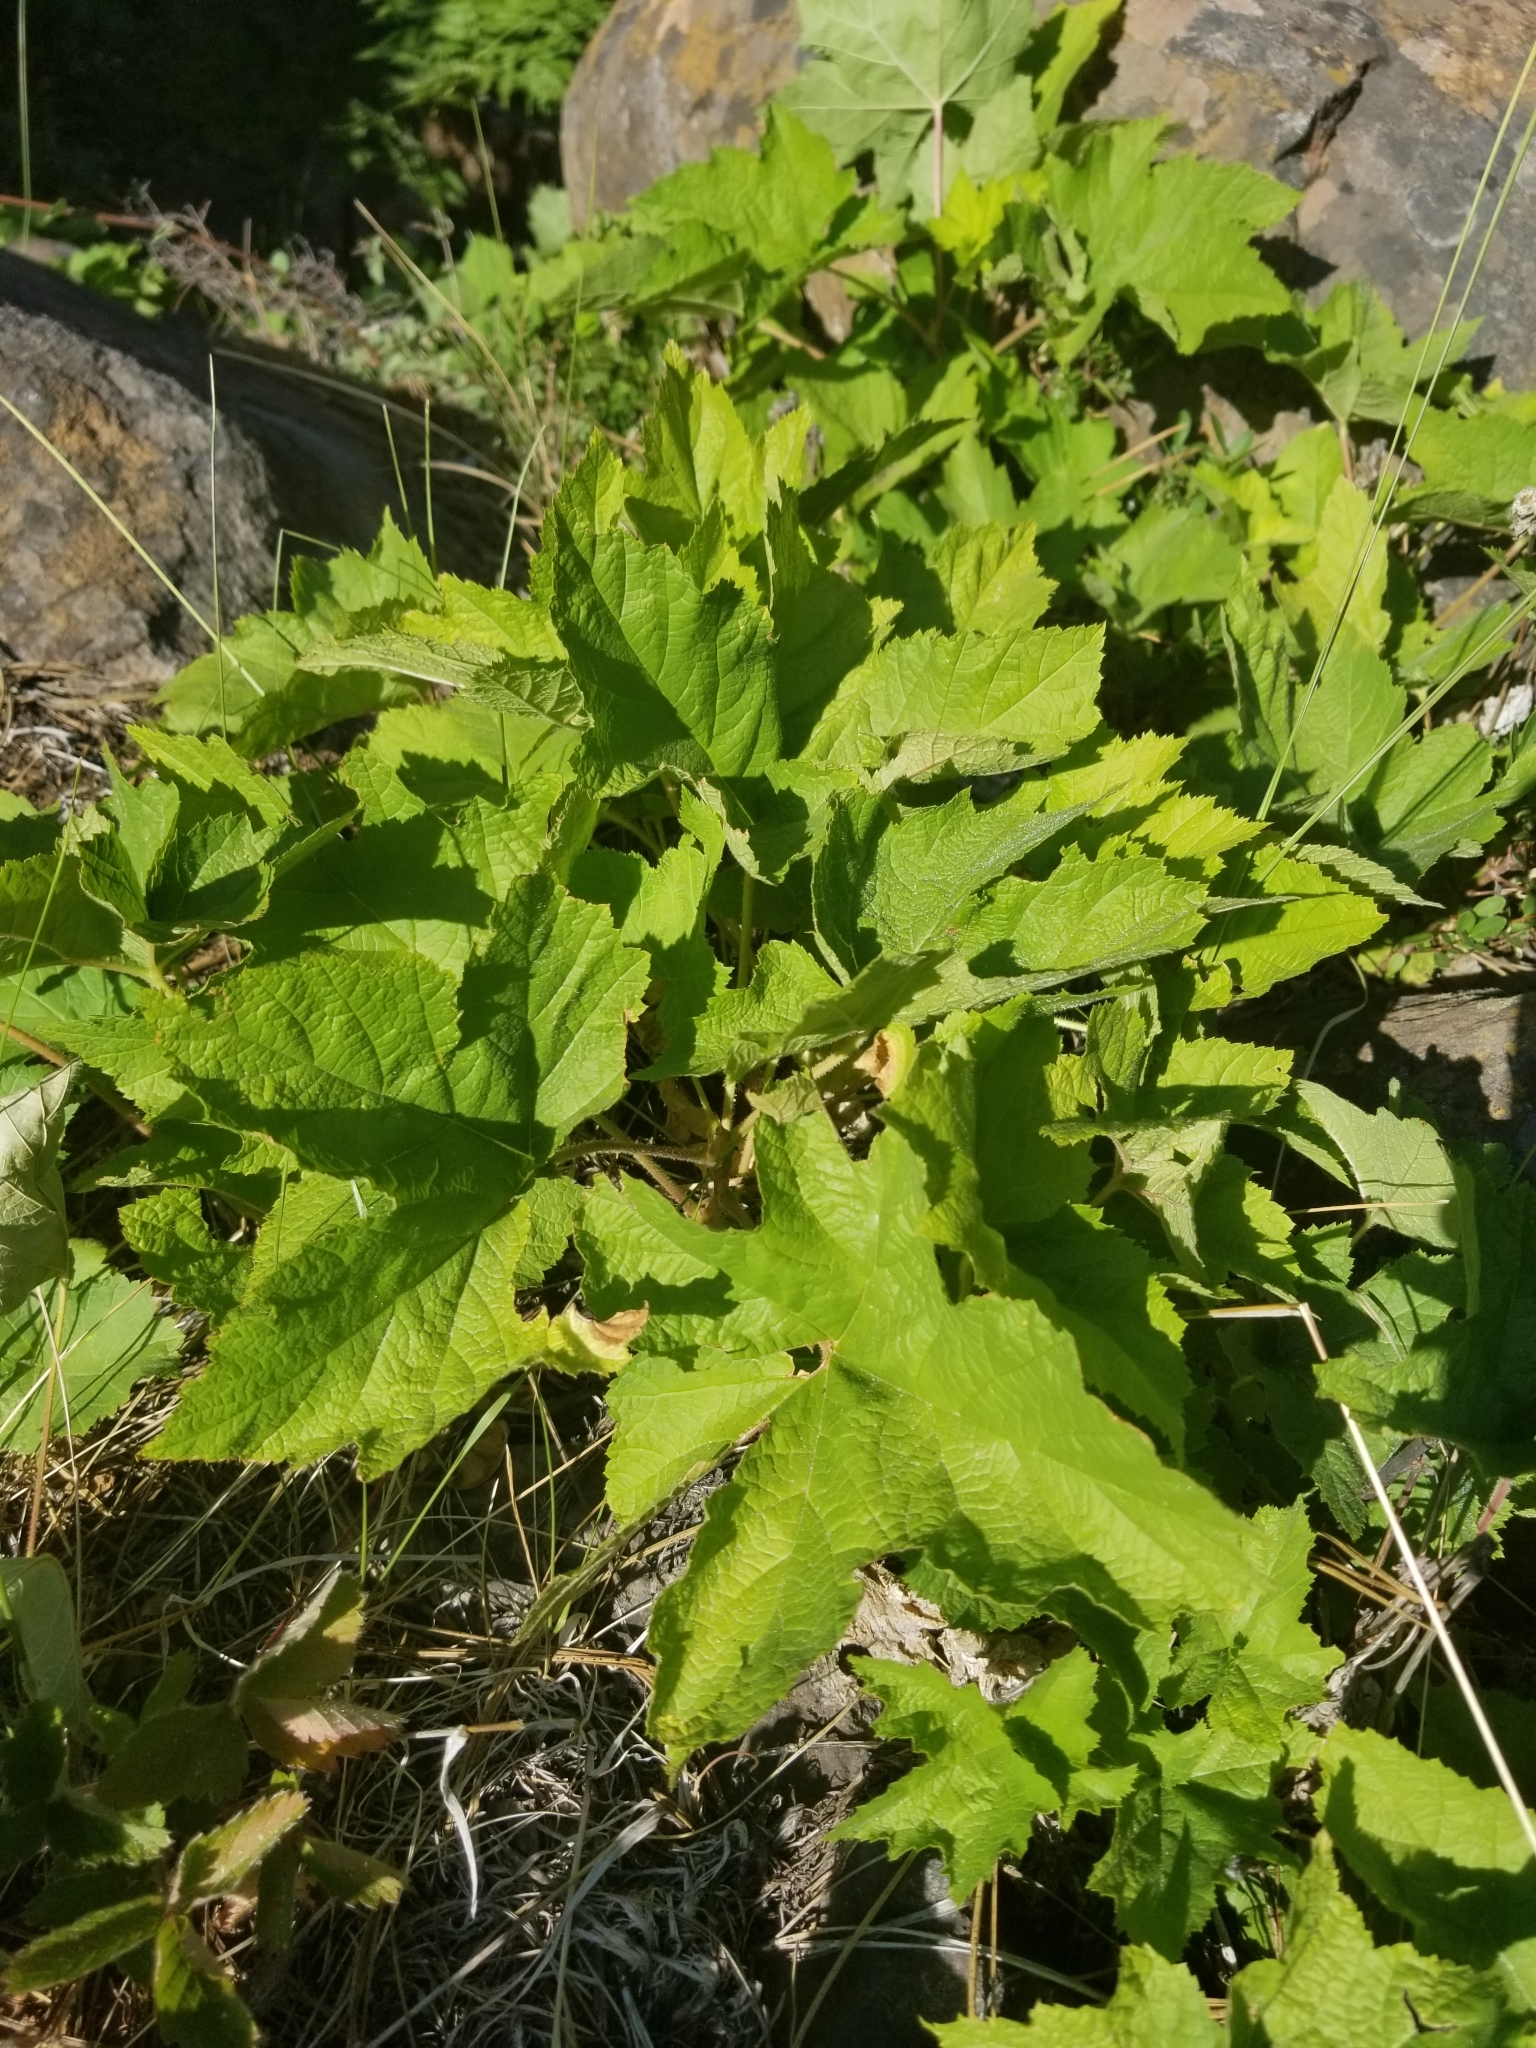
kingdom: Plantae
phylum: Tracheophyta
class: Magnoliopsida
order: Rosales
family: Rosaceae
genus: Rubus
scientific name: Rubus parviflorus
